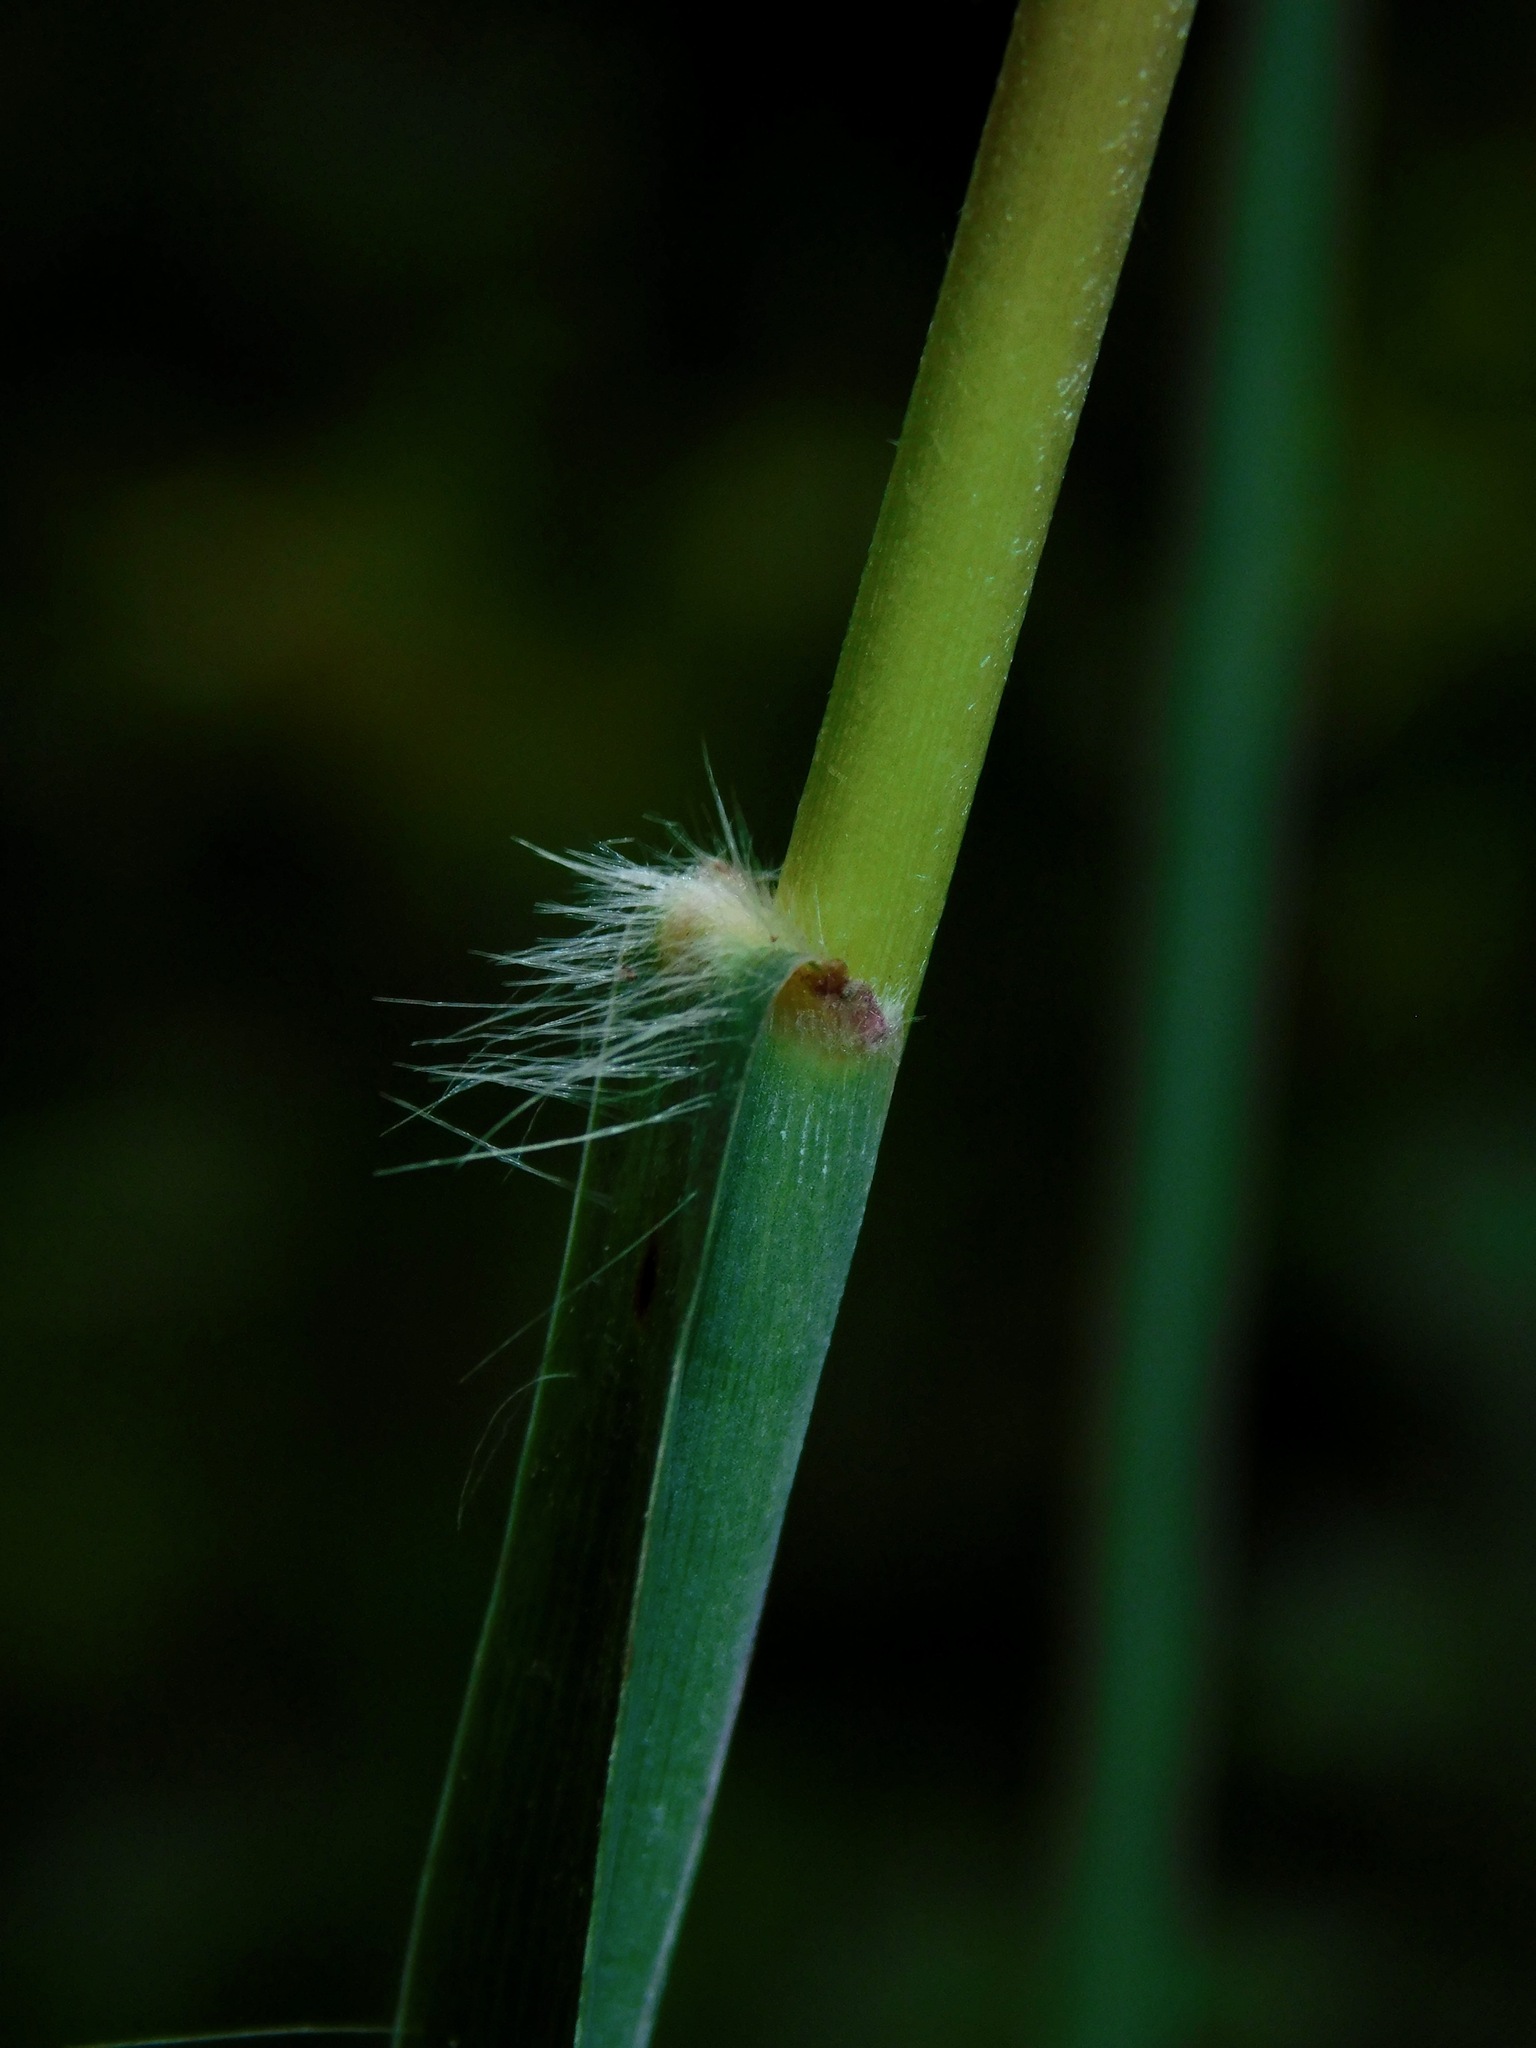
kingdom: Plantae
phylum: Tracheophyta
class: Liliopsida
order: Poales
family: Poaceae
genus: Erianthus
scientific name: Erianthus giganteus
